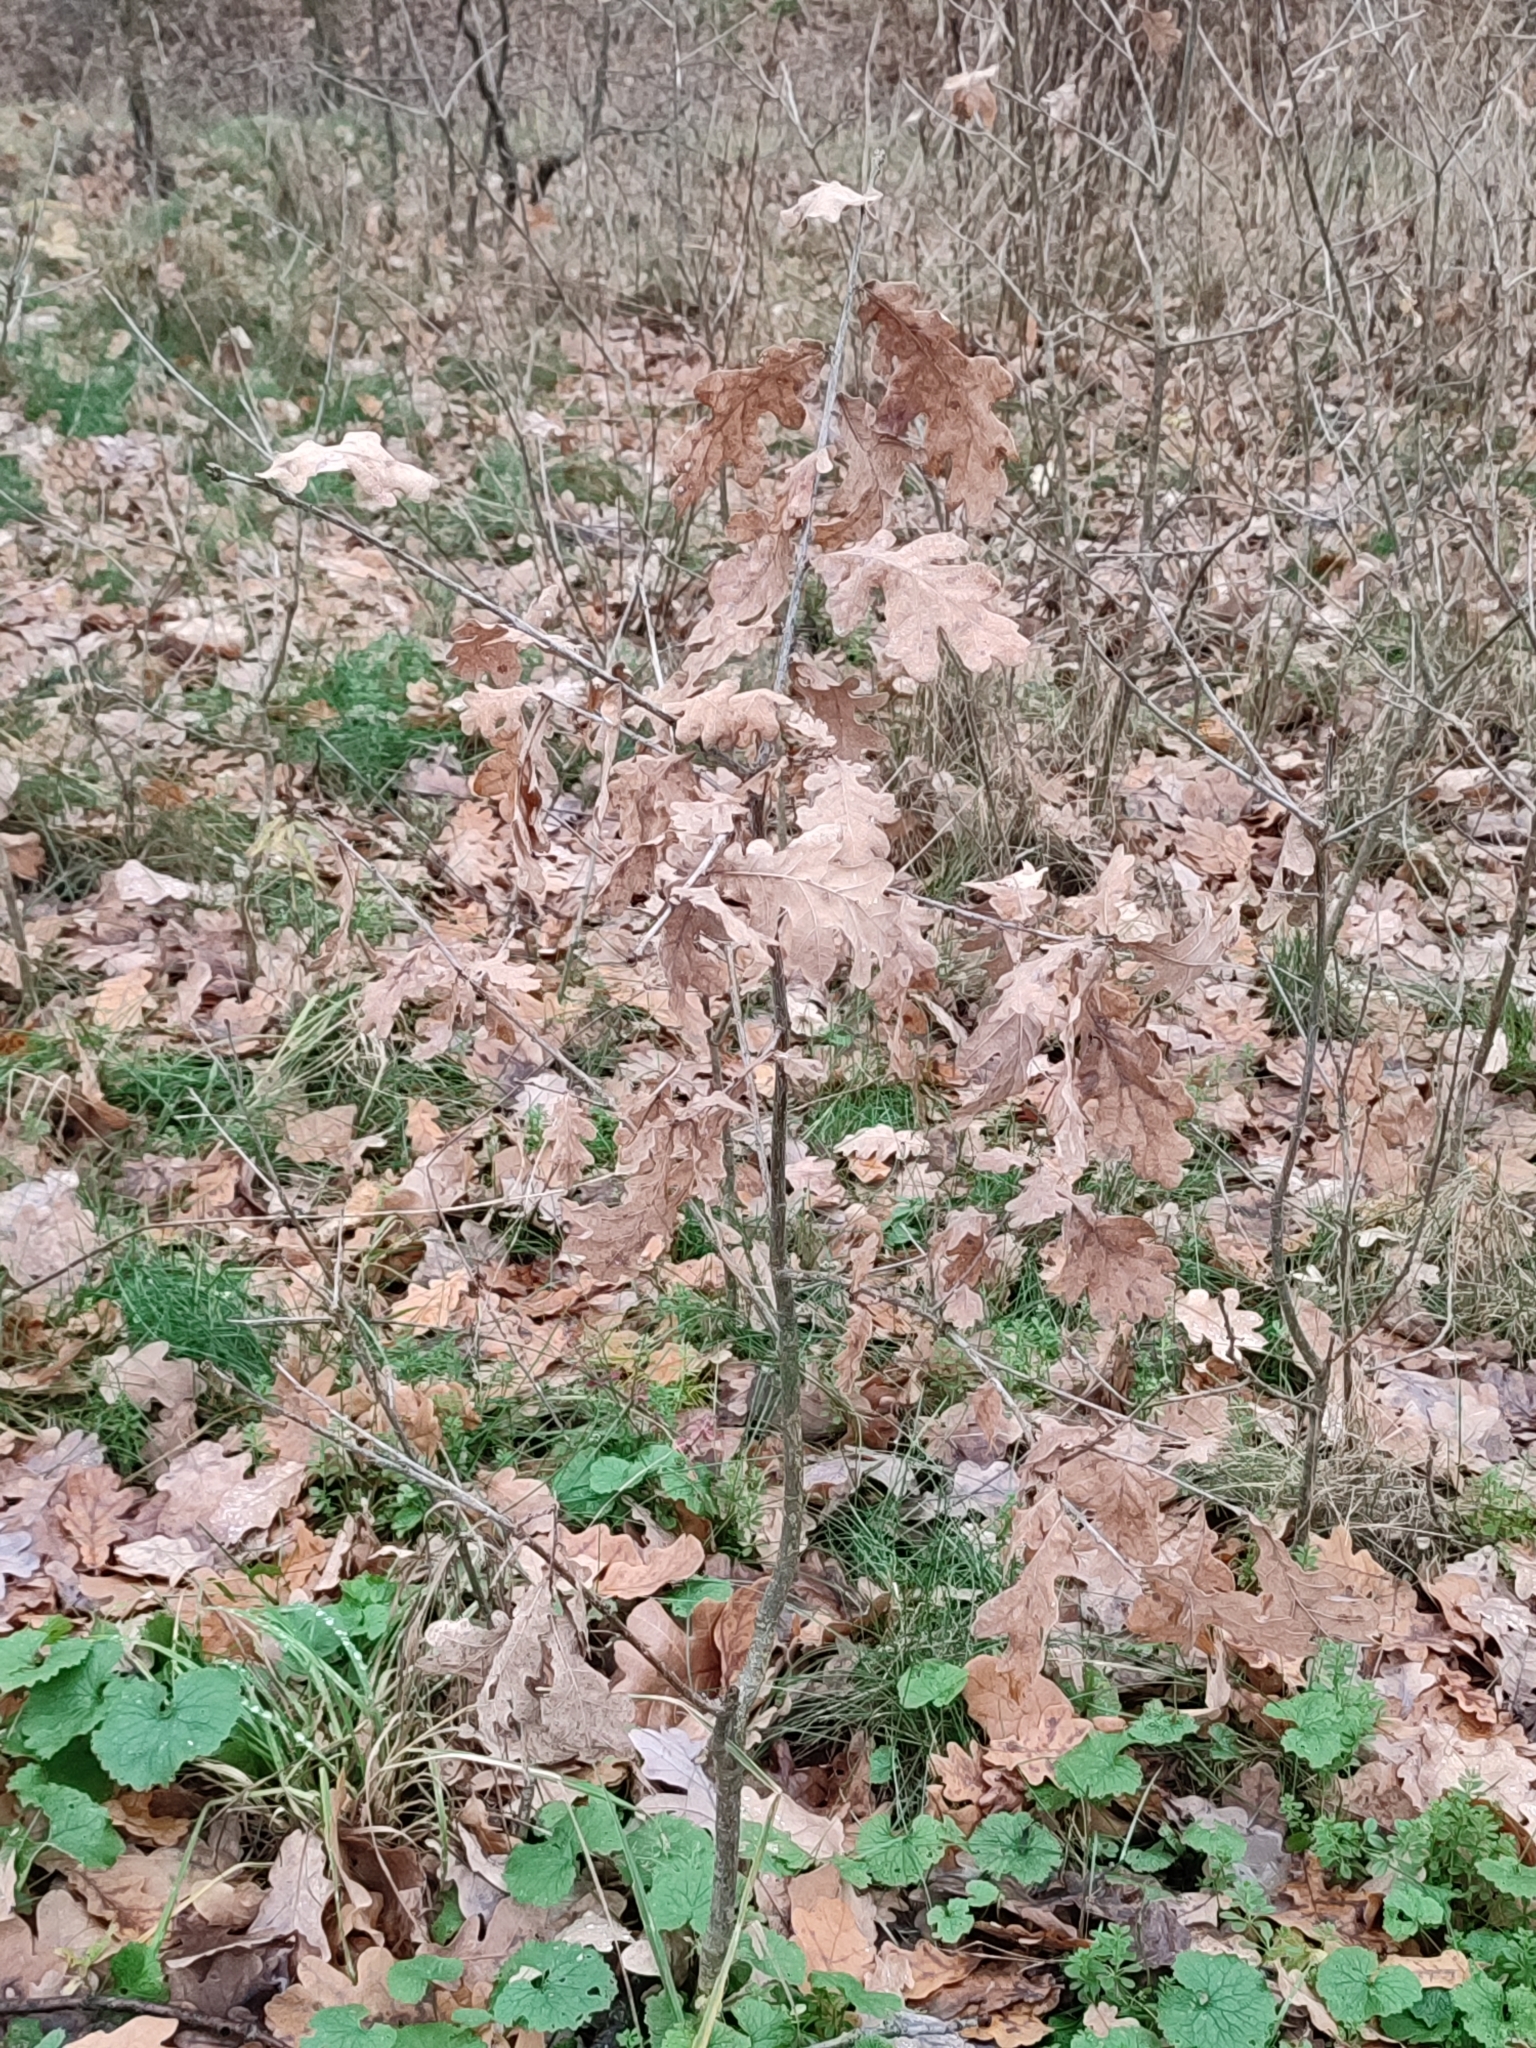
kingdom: Plantae
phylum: Tracheophyta
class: Magnoliopsida
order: Fagales
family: Fagaceae
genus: Quercus
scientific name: Quercus robur
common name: Pedunculate oak
